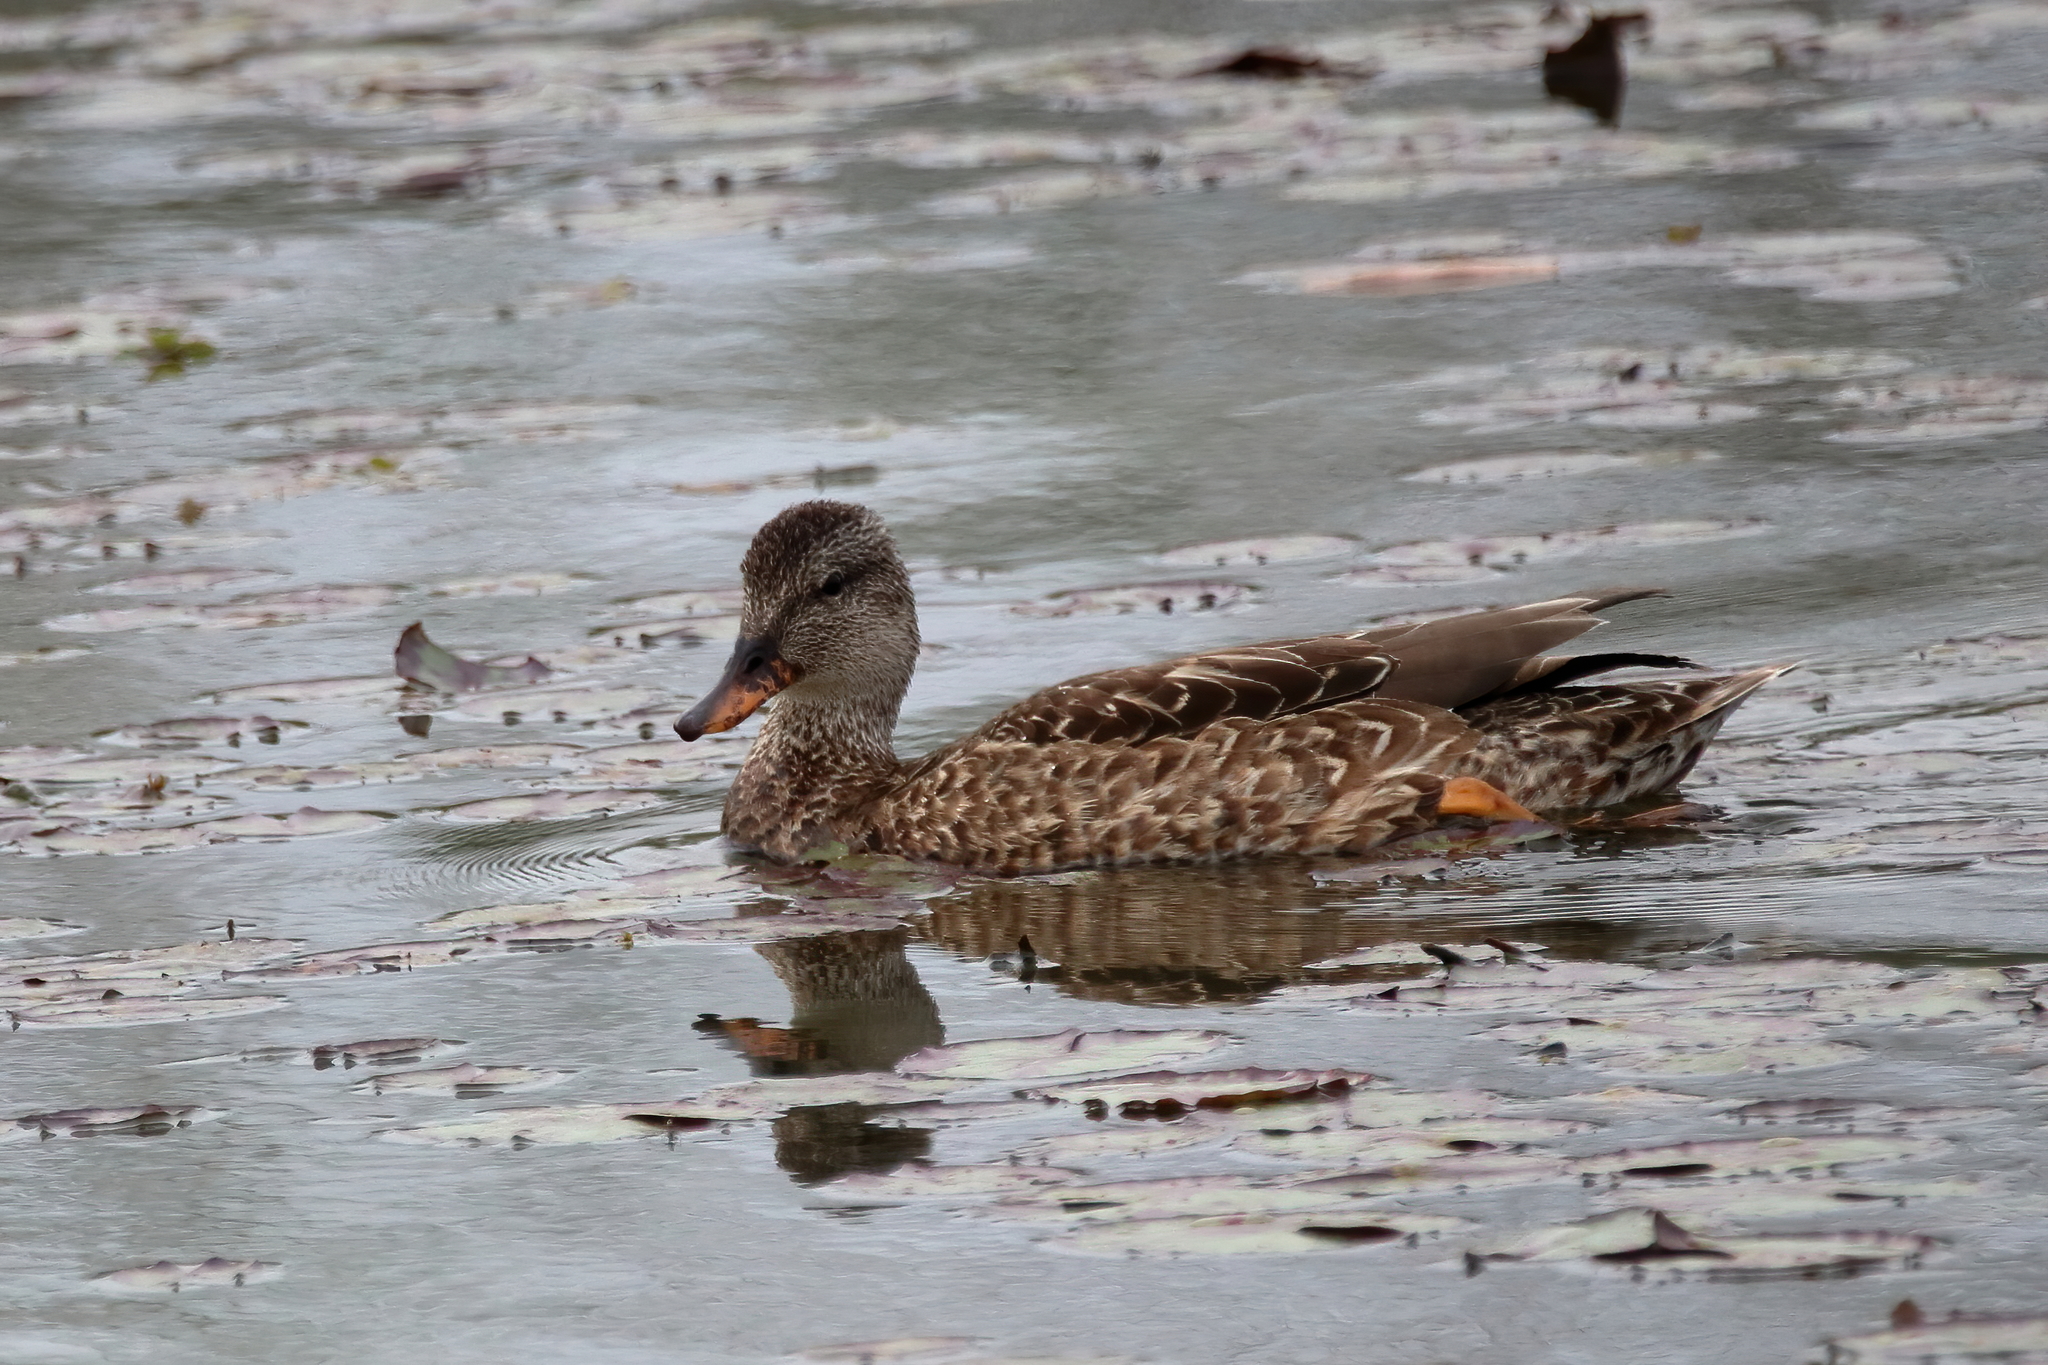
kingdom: Animalia
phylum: Chordata
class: Aves
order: Anseriformes
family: Anatidae
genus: Mareca
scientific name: Mareca strepera
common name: Gadwall
